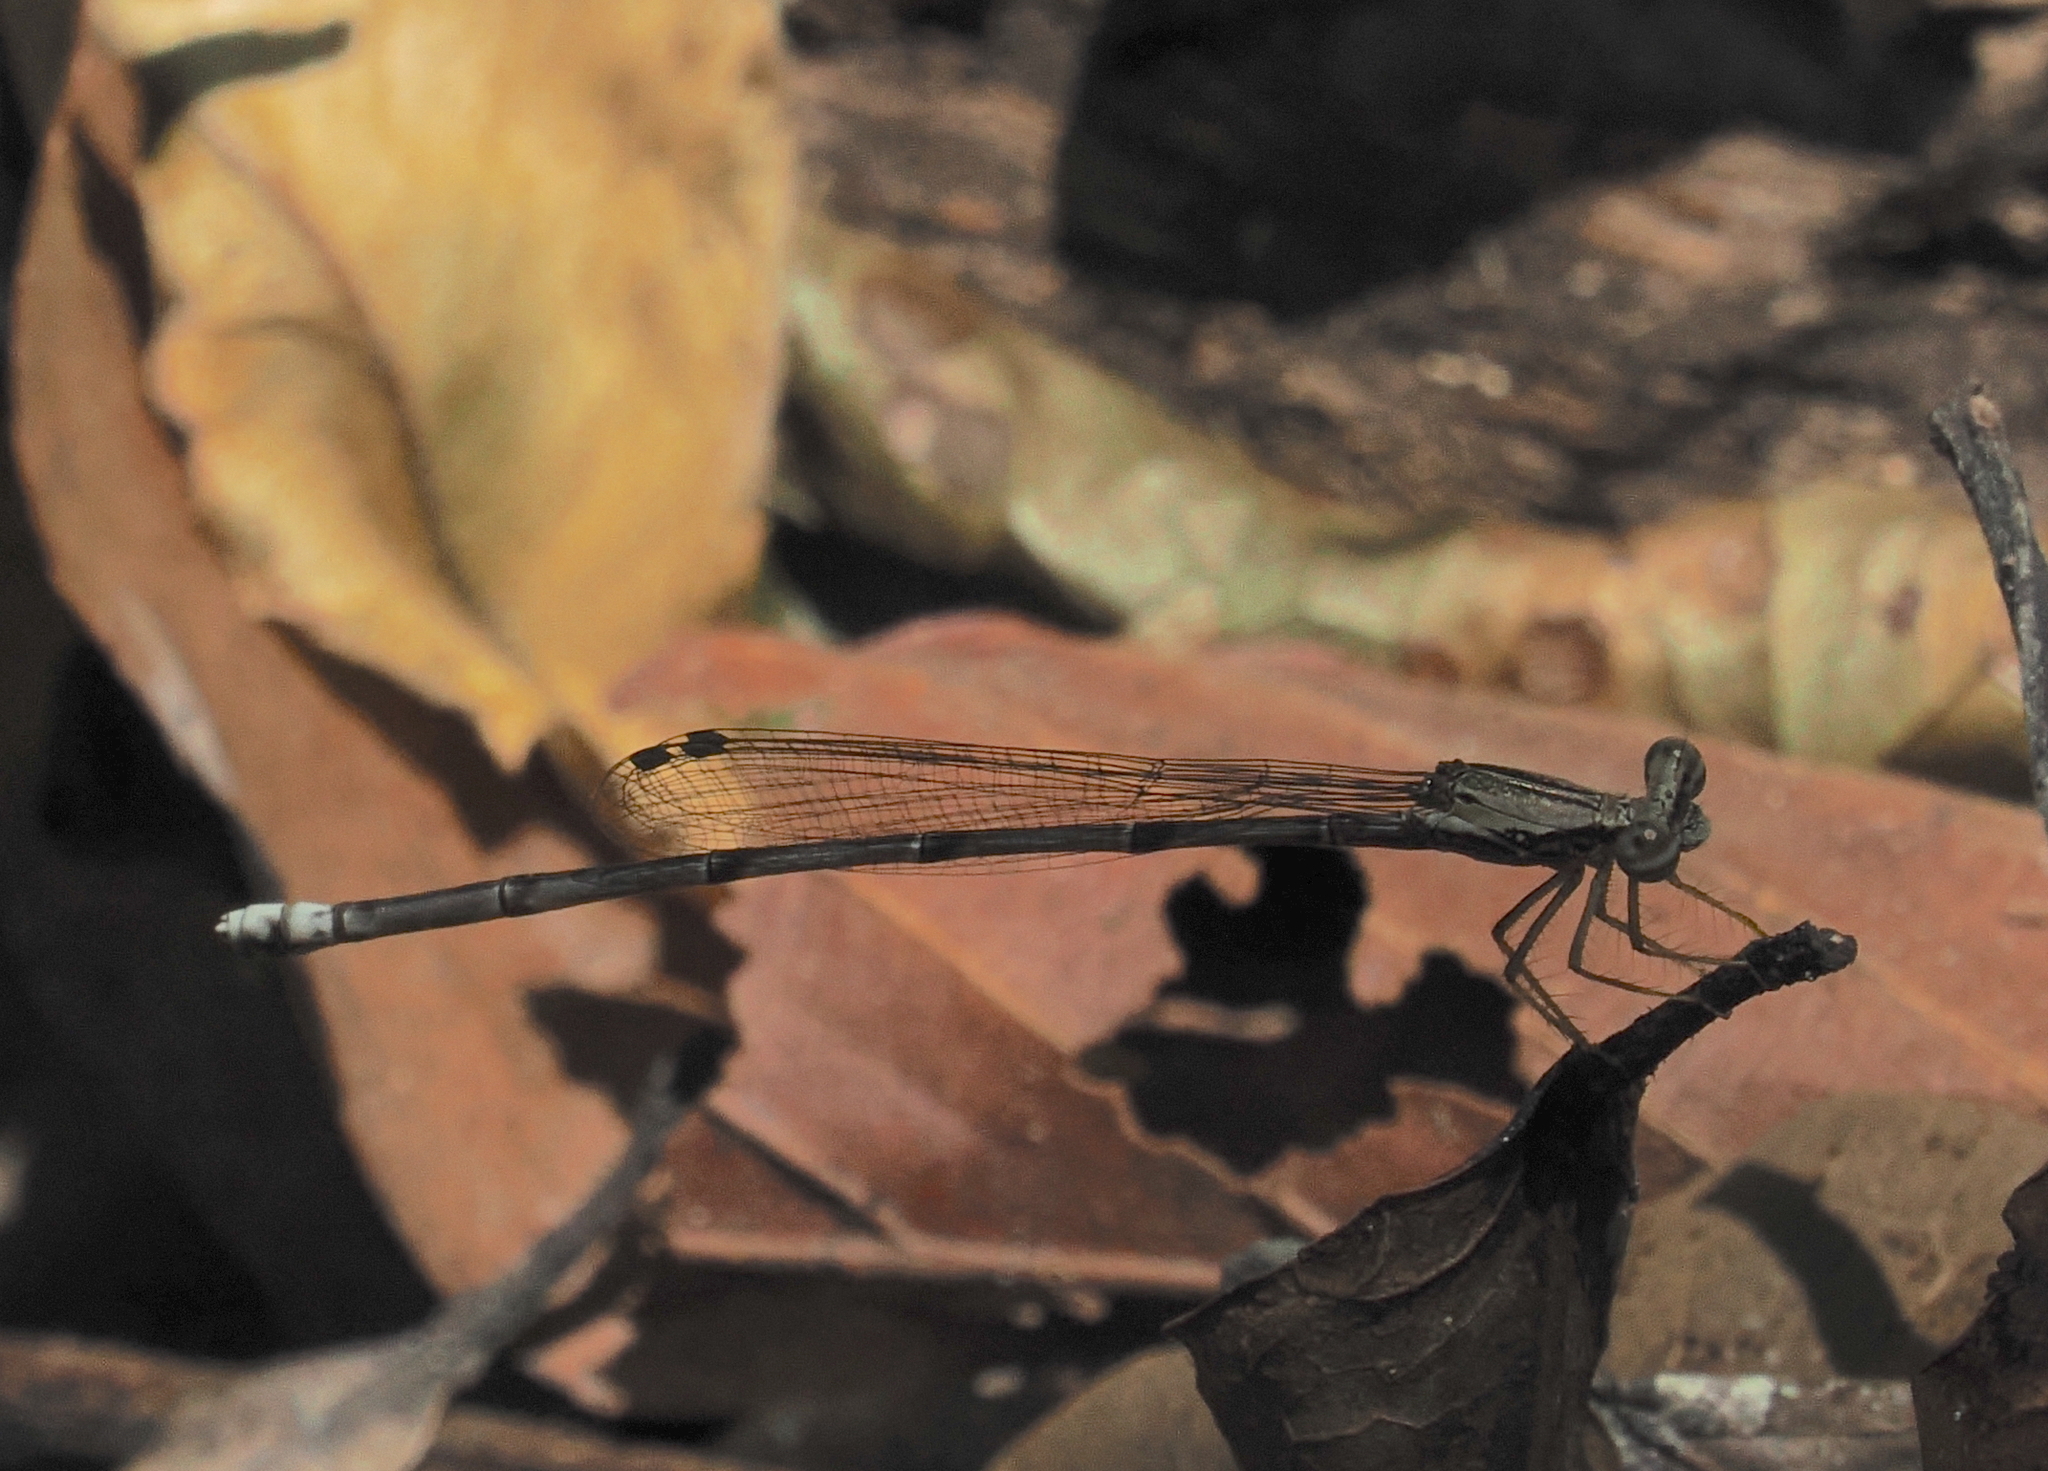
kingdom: Animalia
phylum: Arthropoda
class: Insecta
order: Odonata
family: Platycnemididae
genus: Copera
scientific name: Copera marginipes
